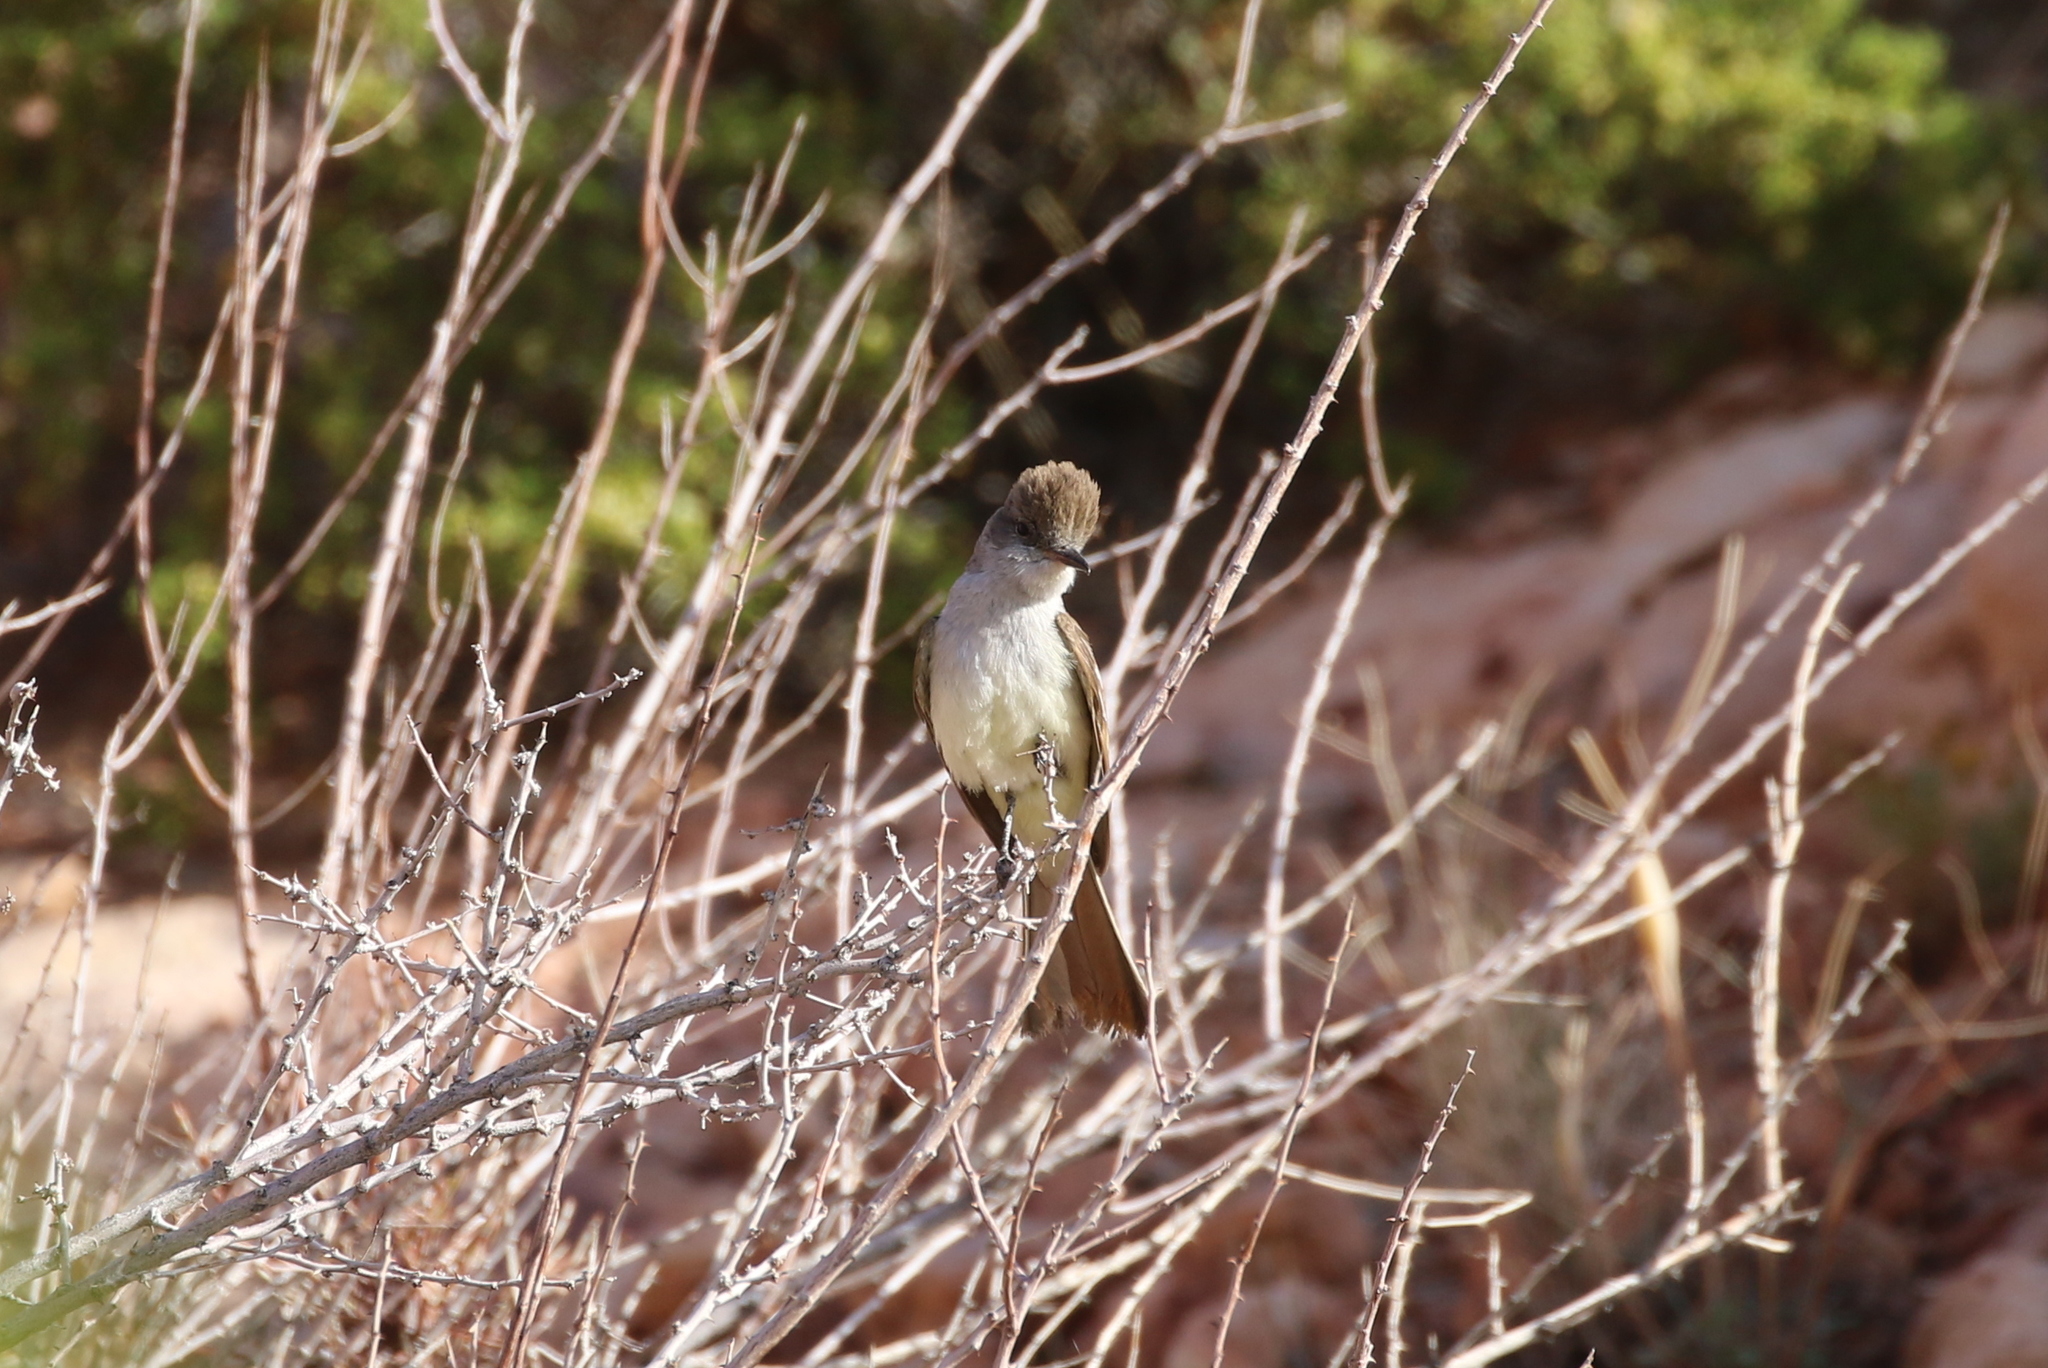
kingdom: Animalia
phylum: Chordata
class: Aves
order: Passeriformes
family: Tyrannidae
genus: Myiarchus
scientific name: Myiarchus cinerascens
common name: Ash-throated flycatcher
